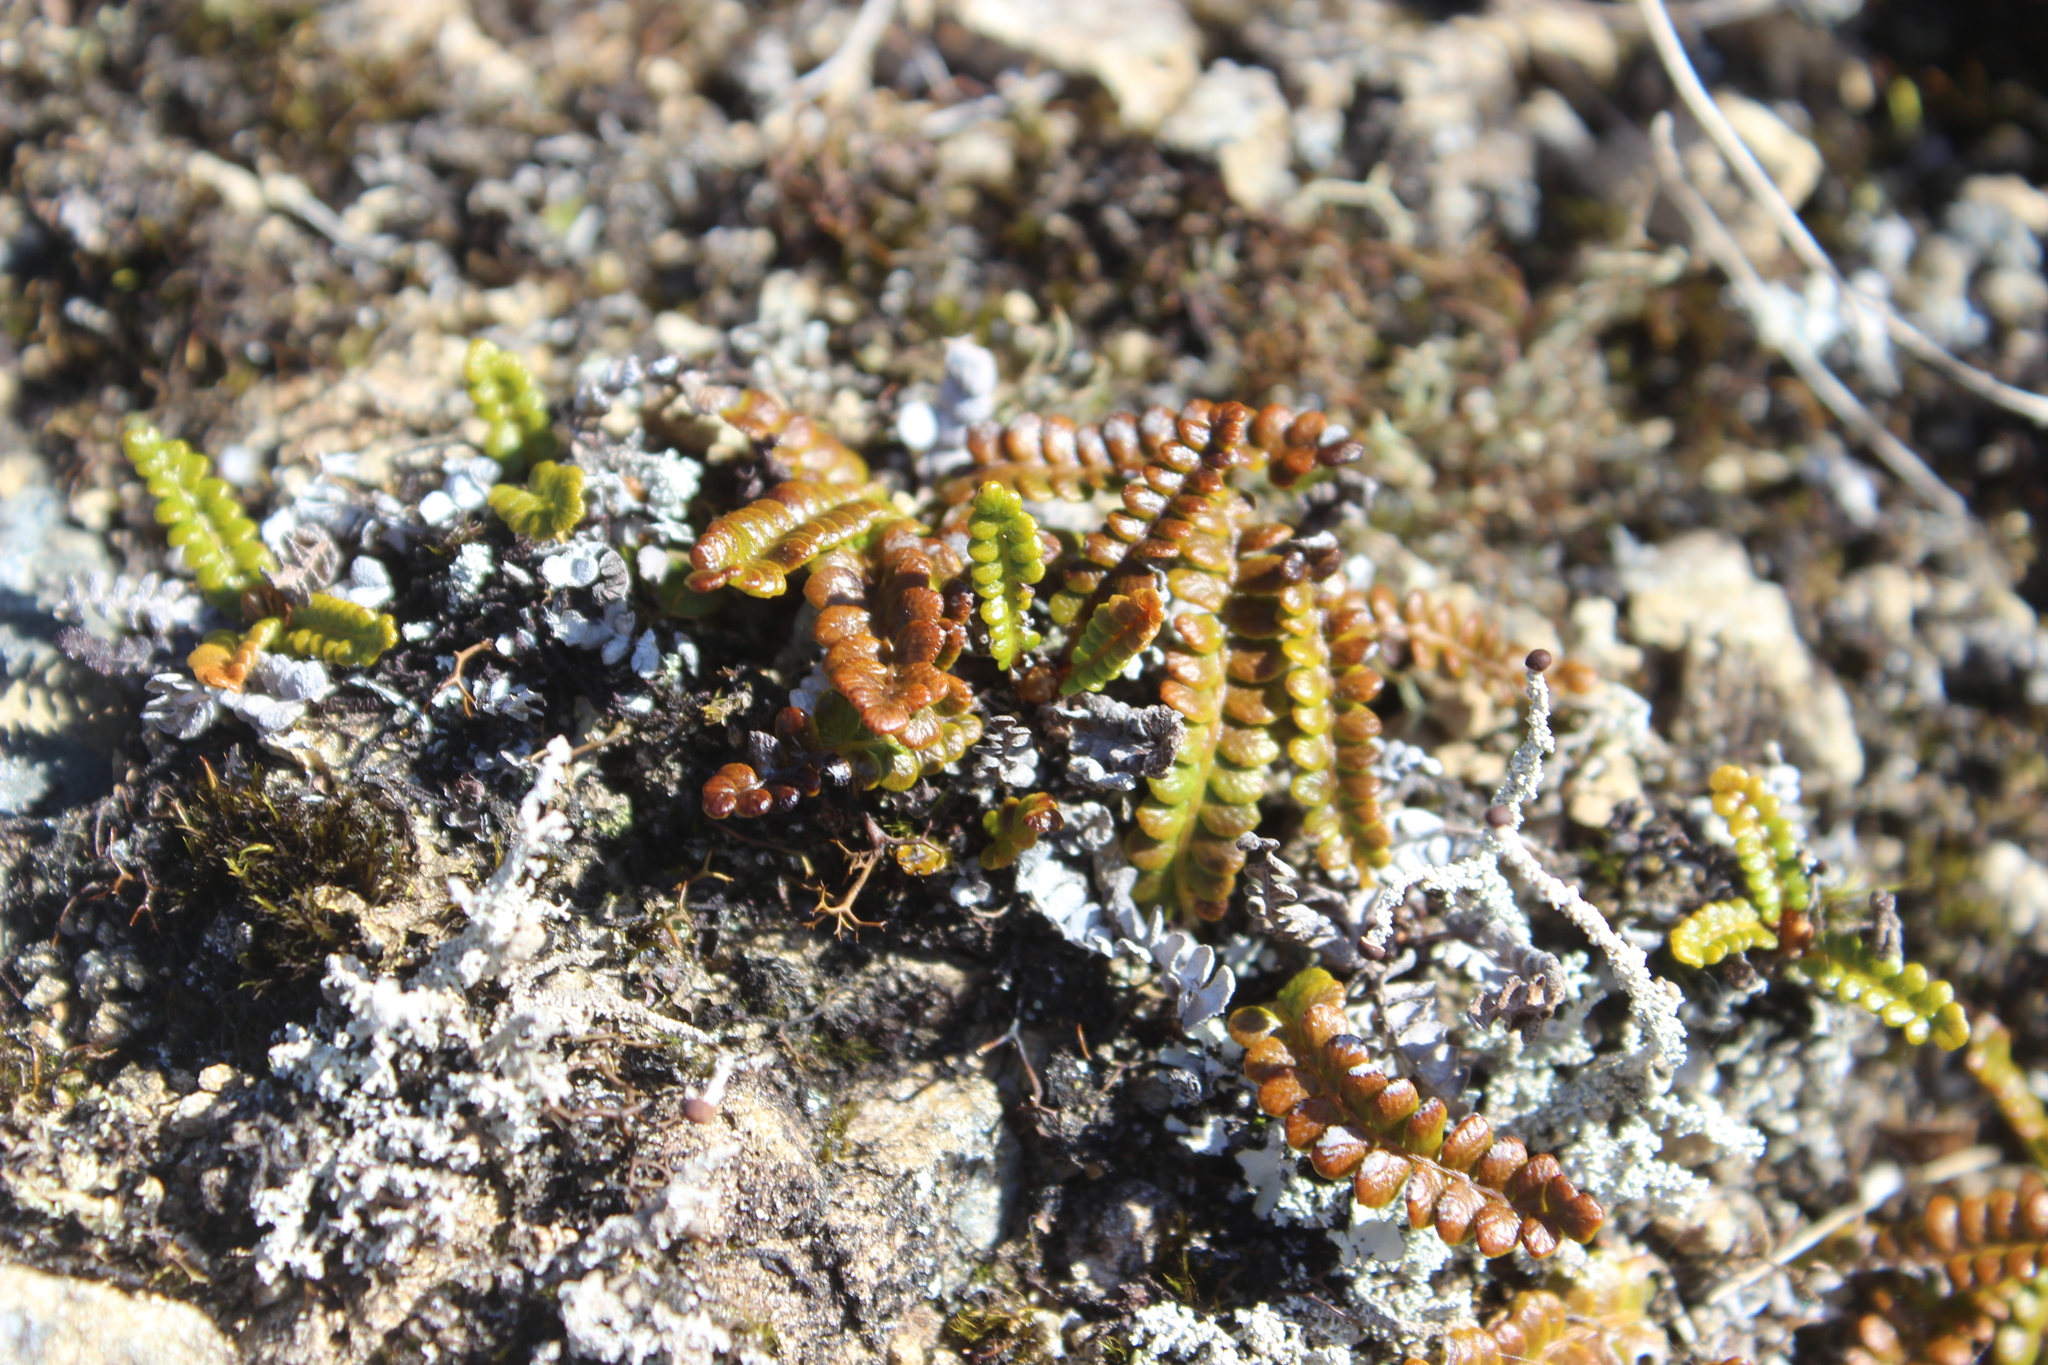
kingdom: Plantae
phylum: Tracheophyta
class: Polypodiopsida
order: Polypodiales
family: Blechnaceae
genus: Austroblechnum
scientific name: Austroblechnum penna-marina
